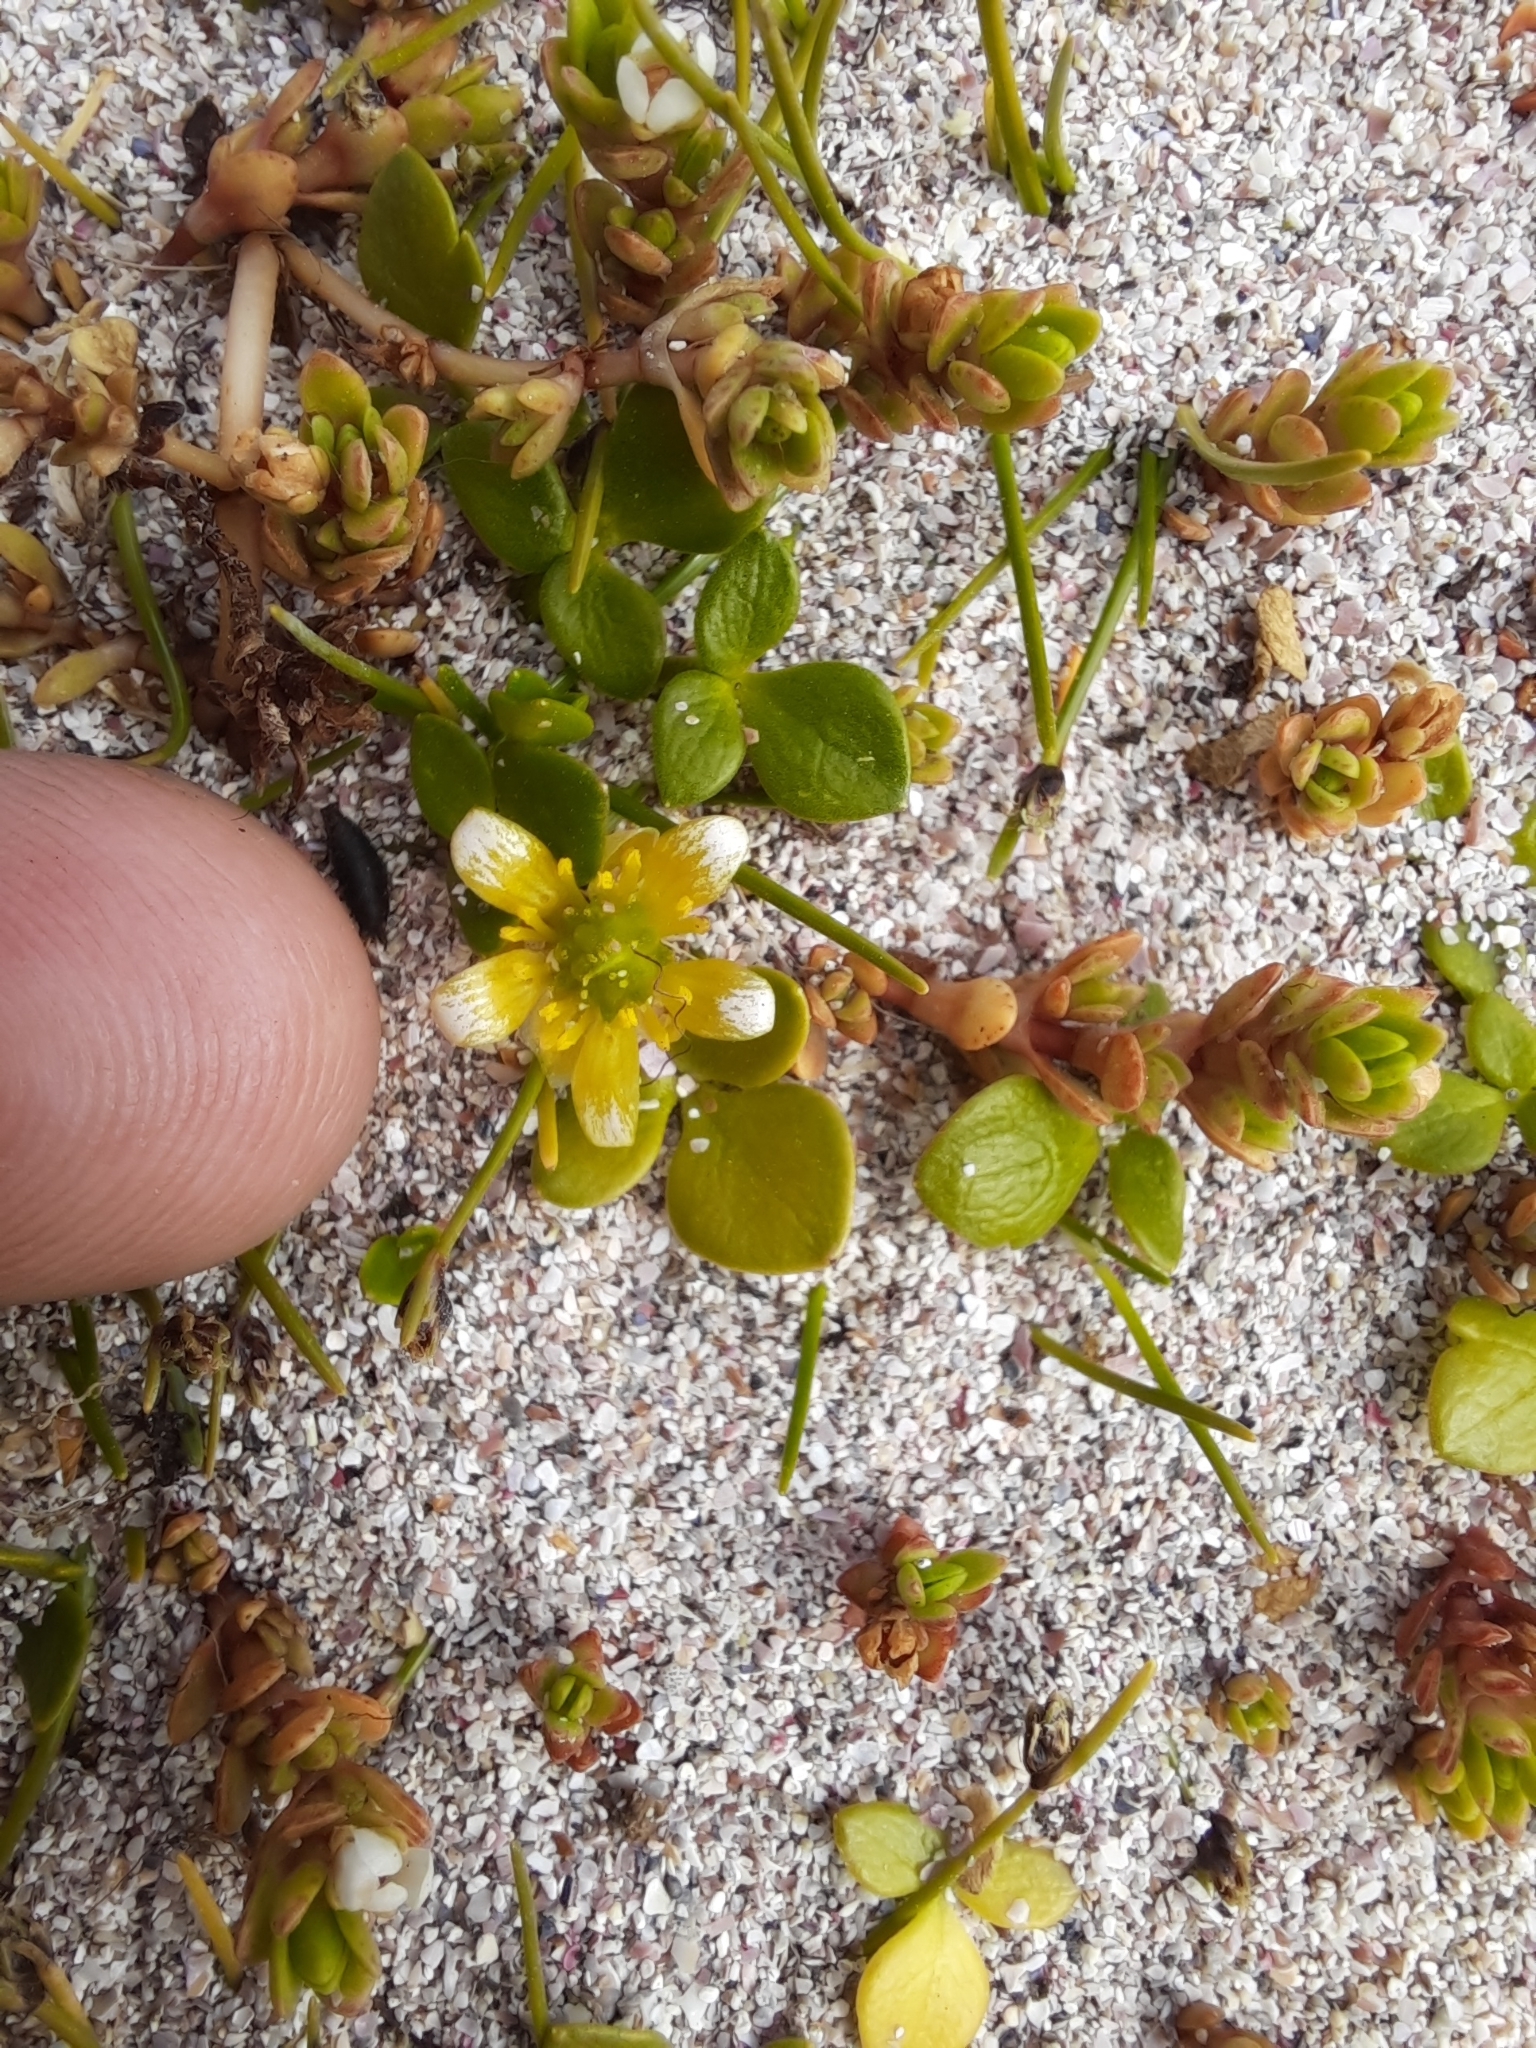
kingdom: Plantae
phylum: Tracheophyta
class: Magnoliopsida
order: Ranunculales
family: Ranunculaceae
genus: Ranunculus
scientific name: Ranunculus acaulis
